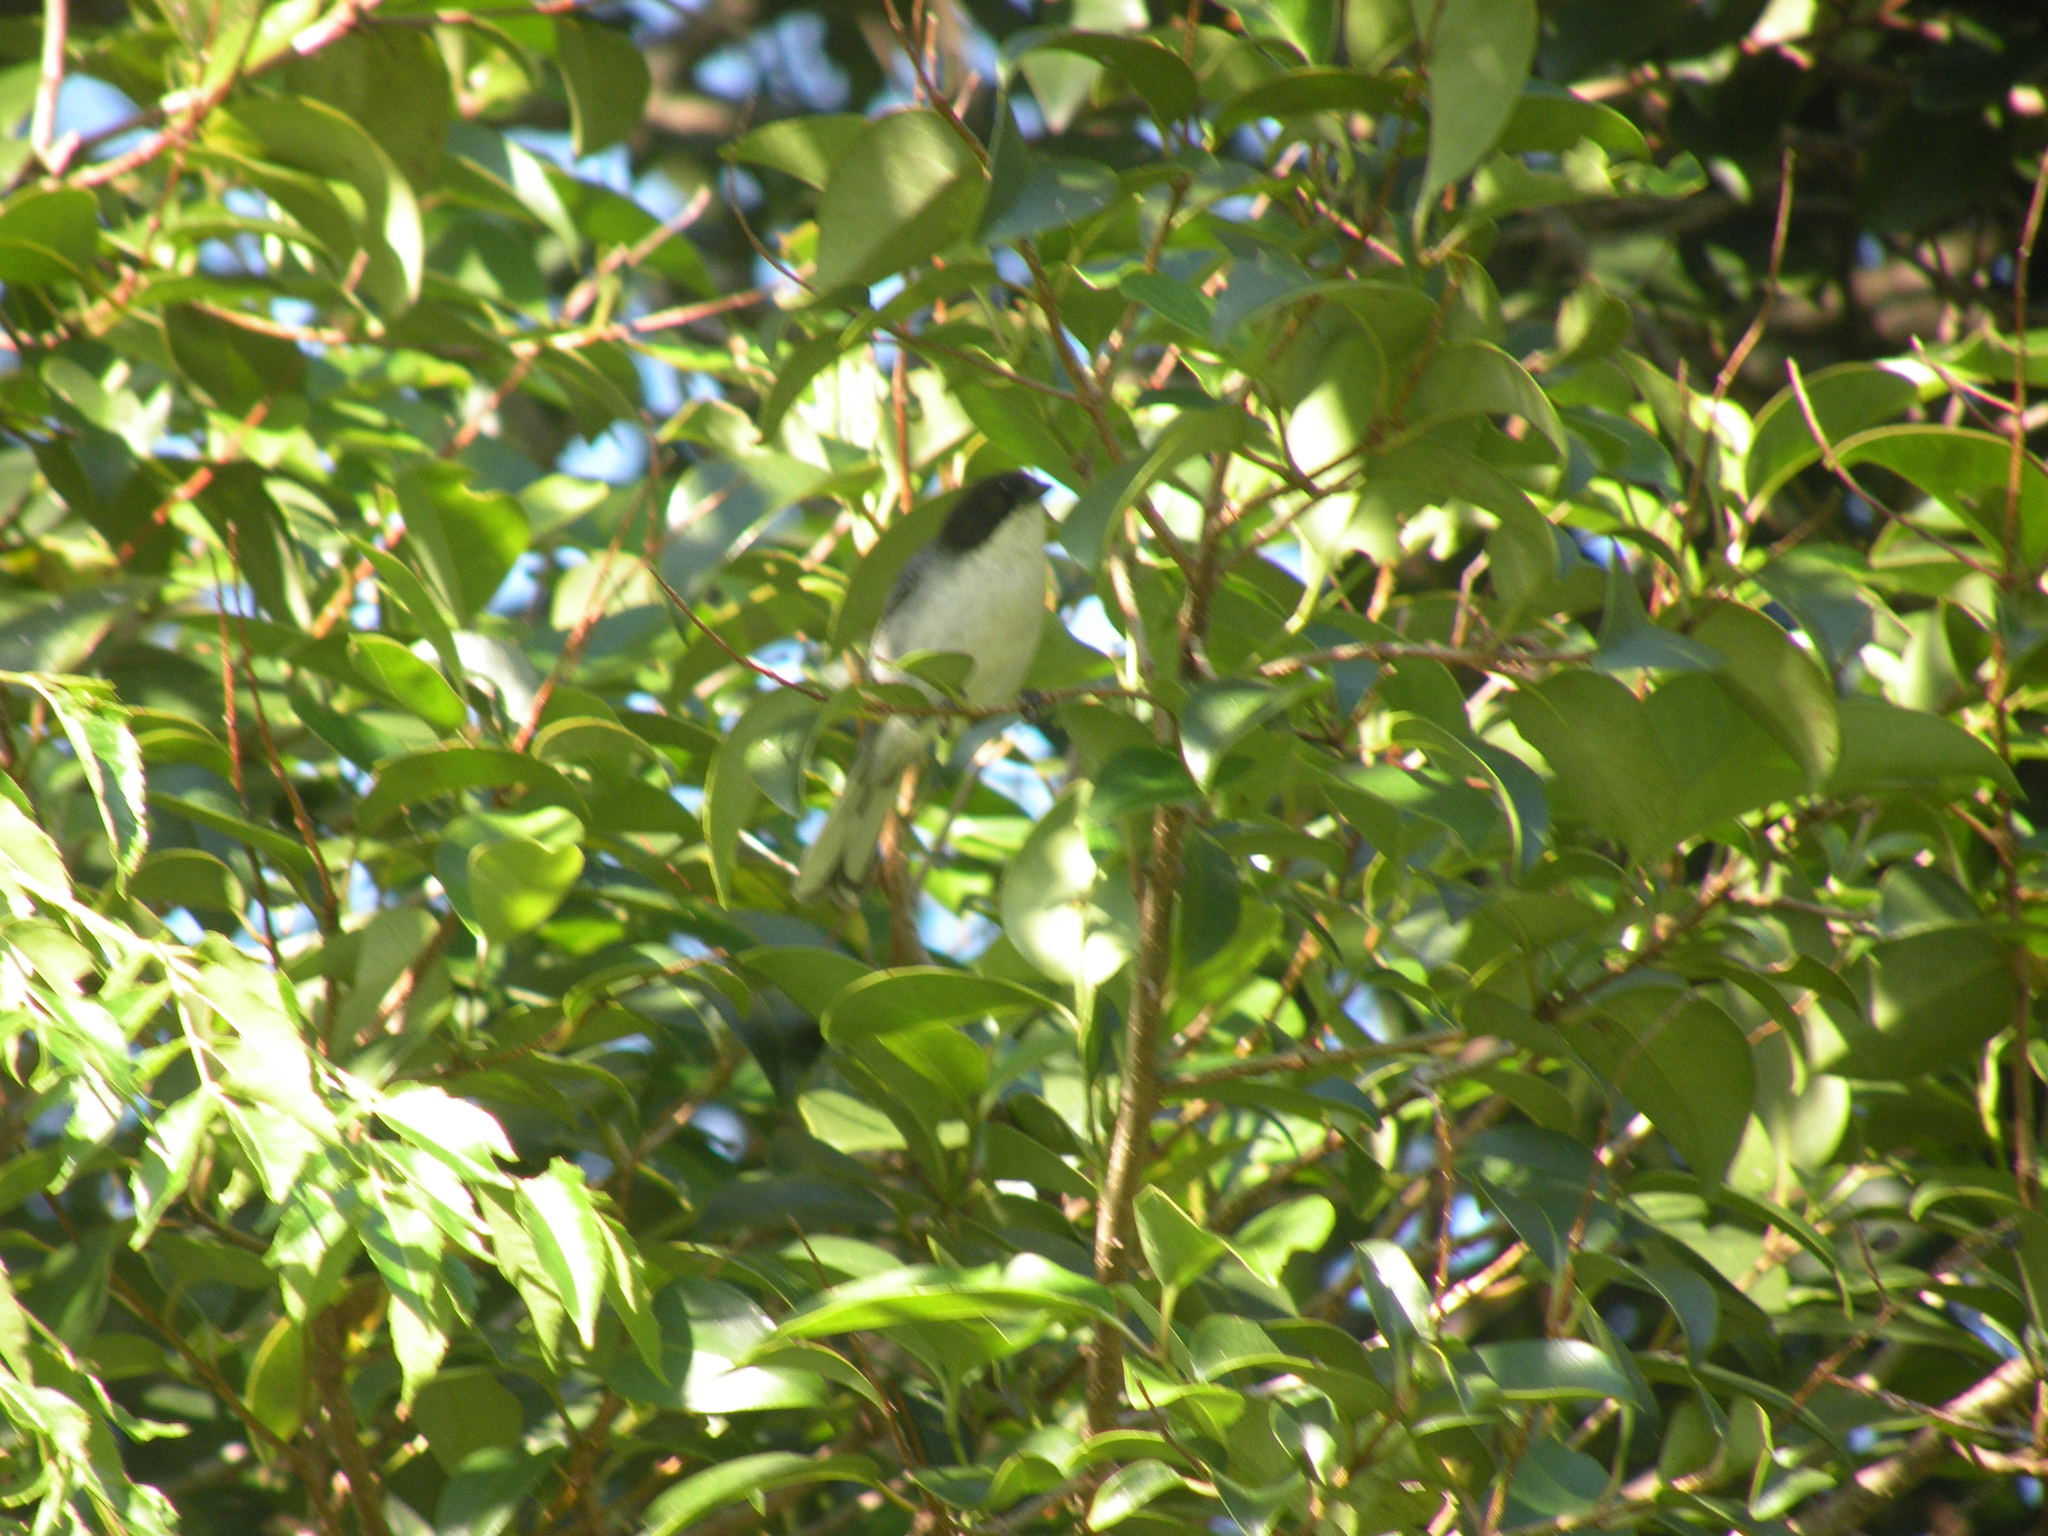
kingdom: Animalia
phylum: Chordata
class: Aves
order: Passeriformes
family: Thraupidae
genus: Microspingus
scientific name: Microspingus melanoleucus
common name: Black-capped warbling-finch
